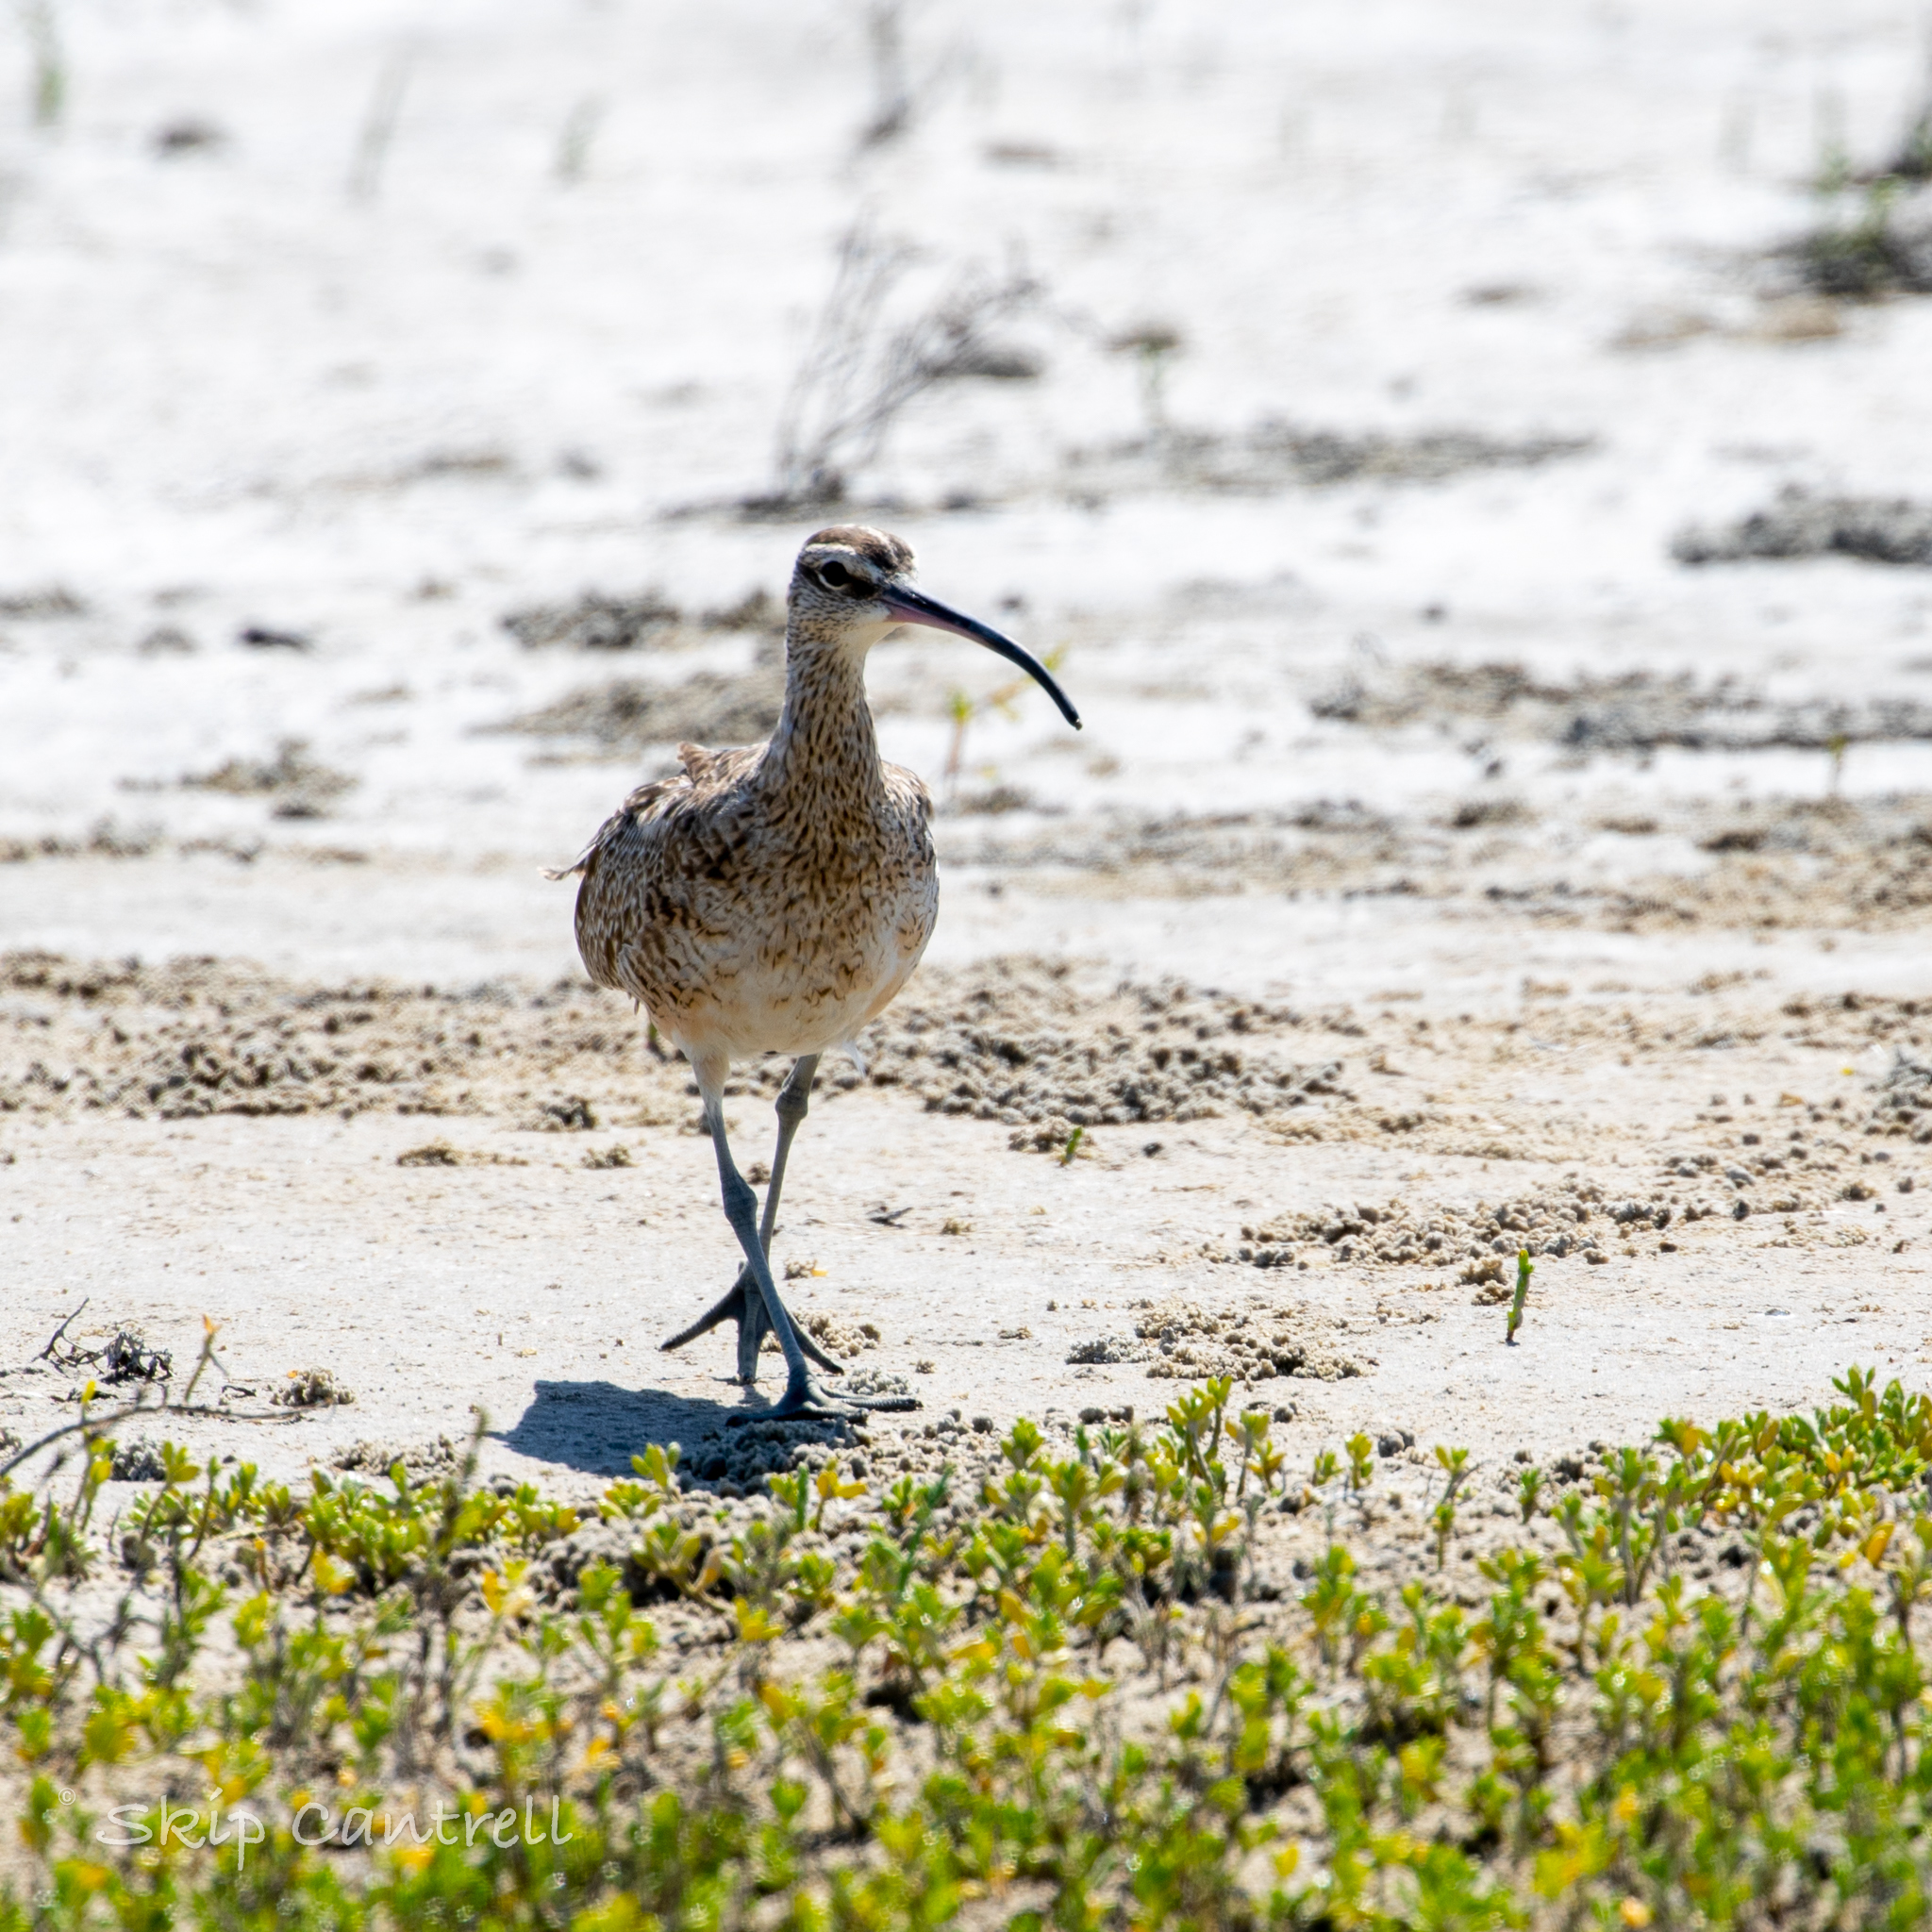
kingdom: Animalia
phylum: Chordata
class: Aves
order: Charadriiformes
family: Scolopacidae
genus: Numenius
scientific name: Numenius phaeopus
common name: Whimbrel
